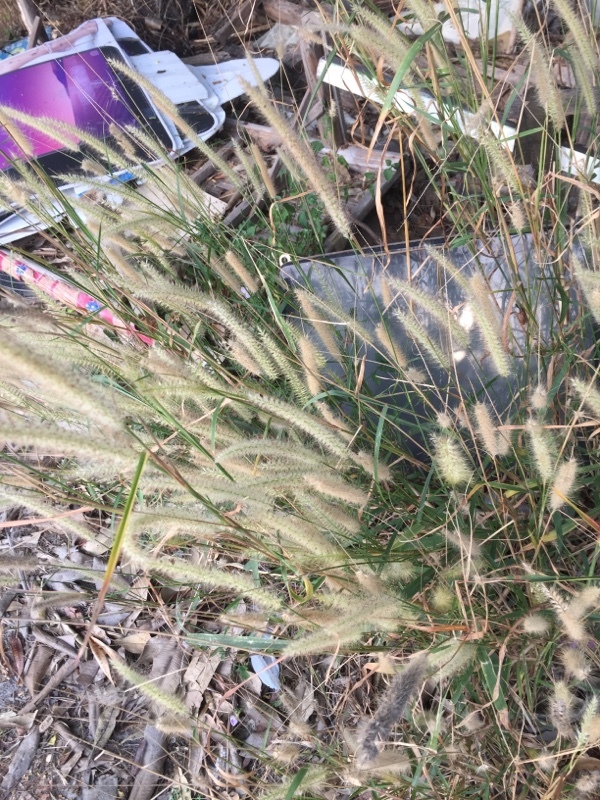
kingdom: Plantae
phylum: Tracheophyta
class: Liliopsida
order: Poales
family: Poaceae
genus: Cenchrus
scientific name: Cenchrus setaceus
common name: Crimson fountaingrass
